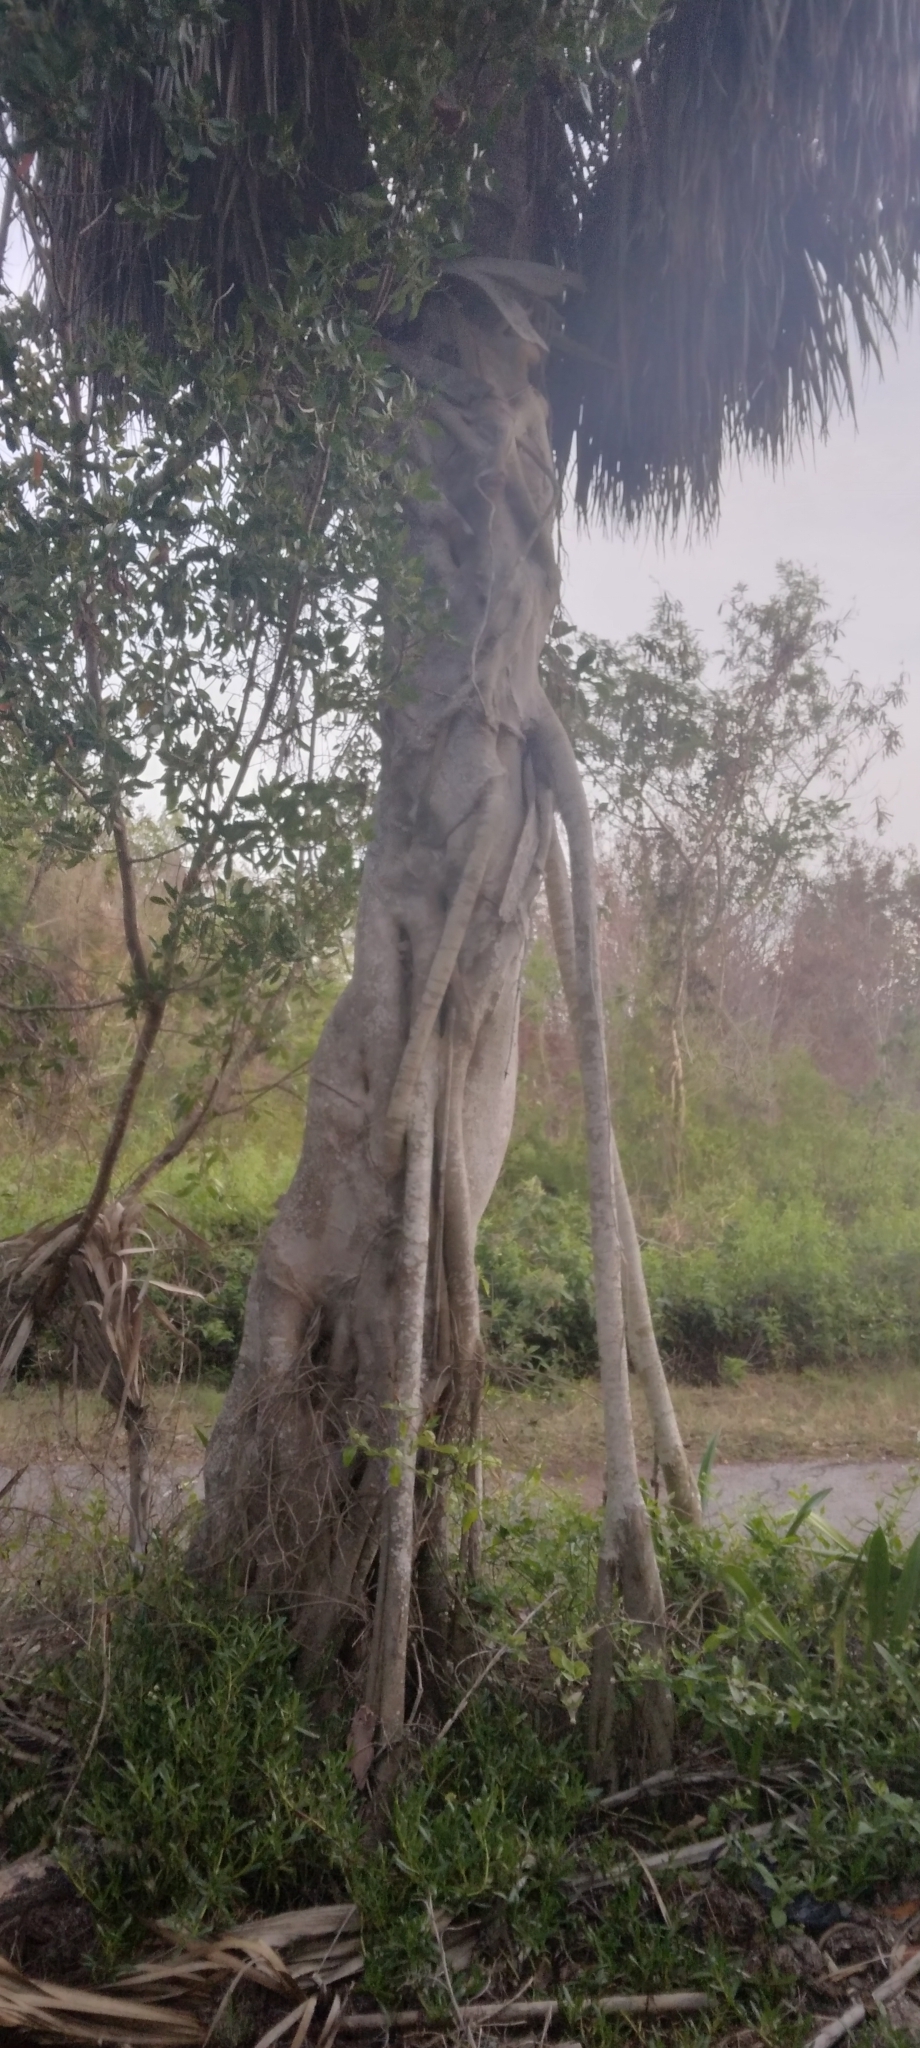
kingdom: Plantae
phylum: Tracheophyta
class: Liliopsida
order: Arecales
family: Arecaceae
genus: Sabal
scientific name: Sabal palmetto
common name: Blue palmetto
